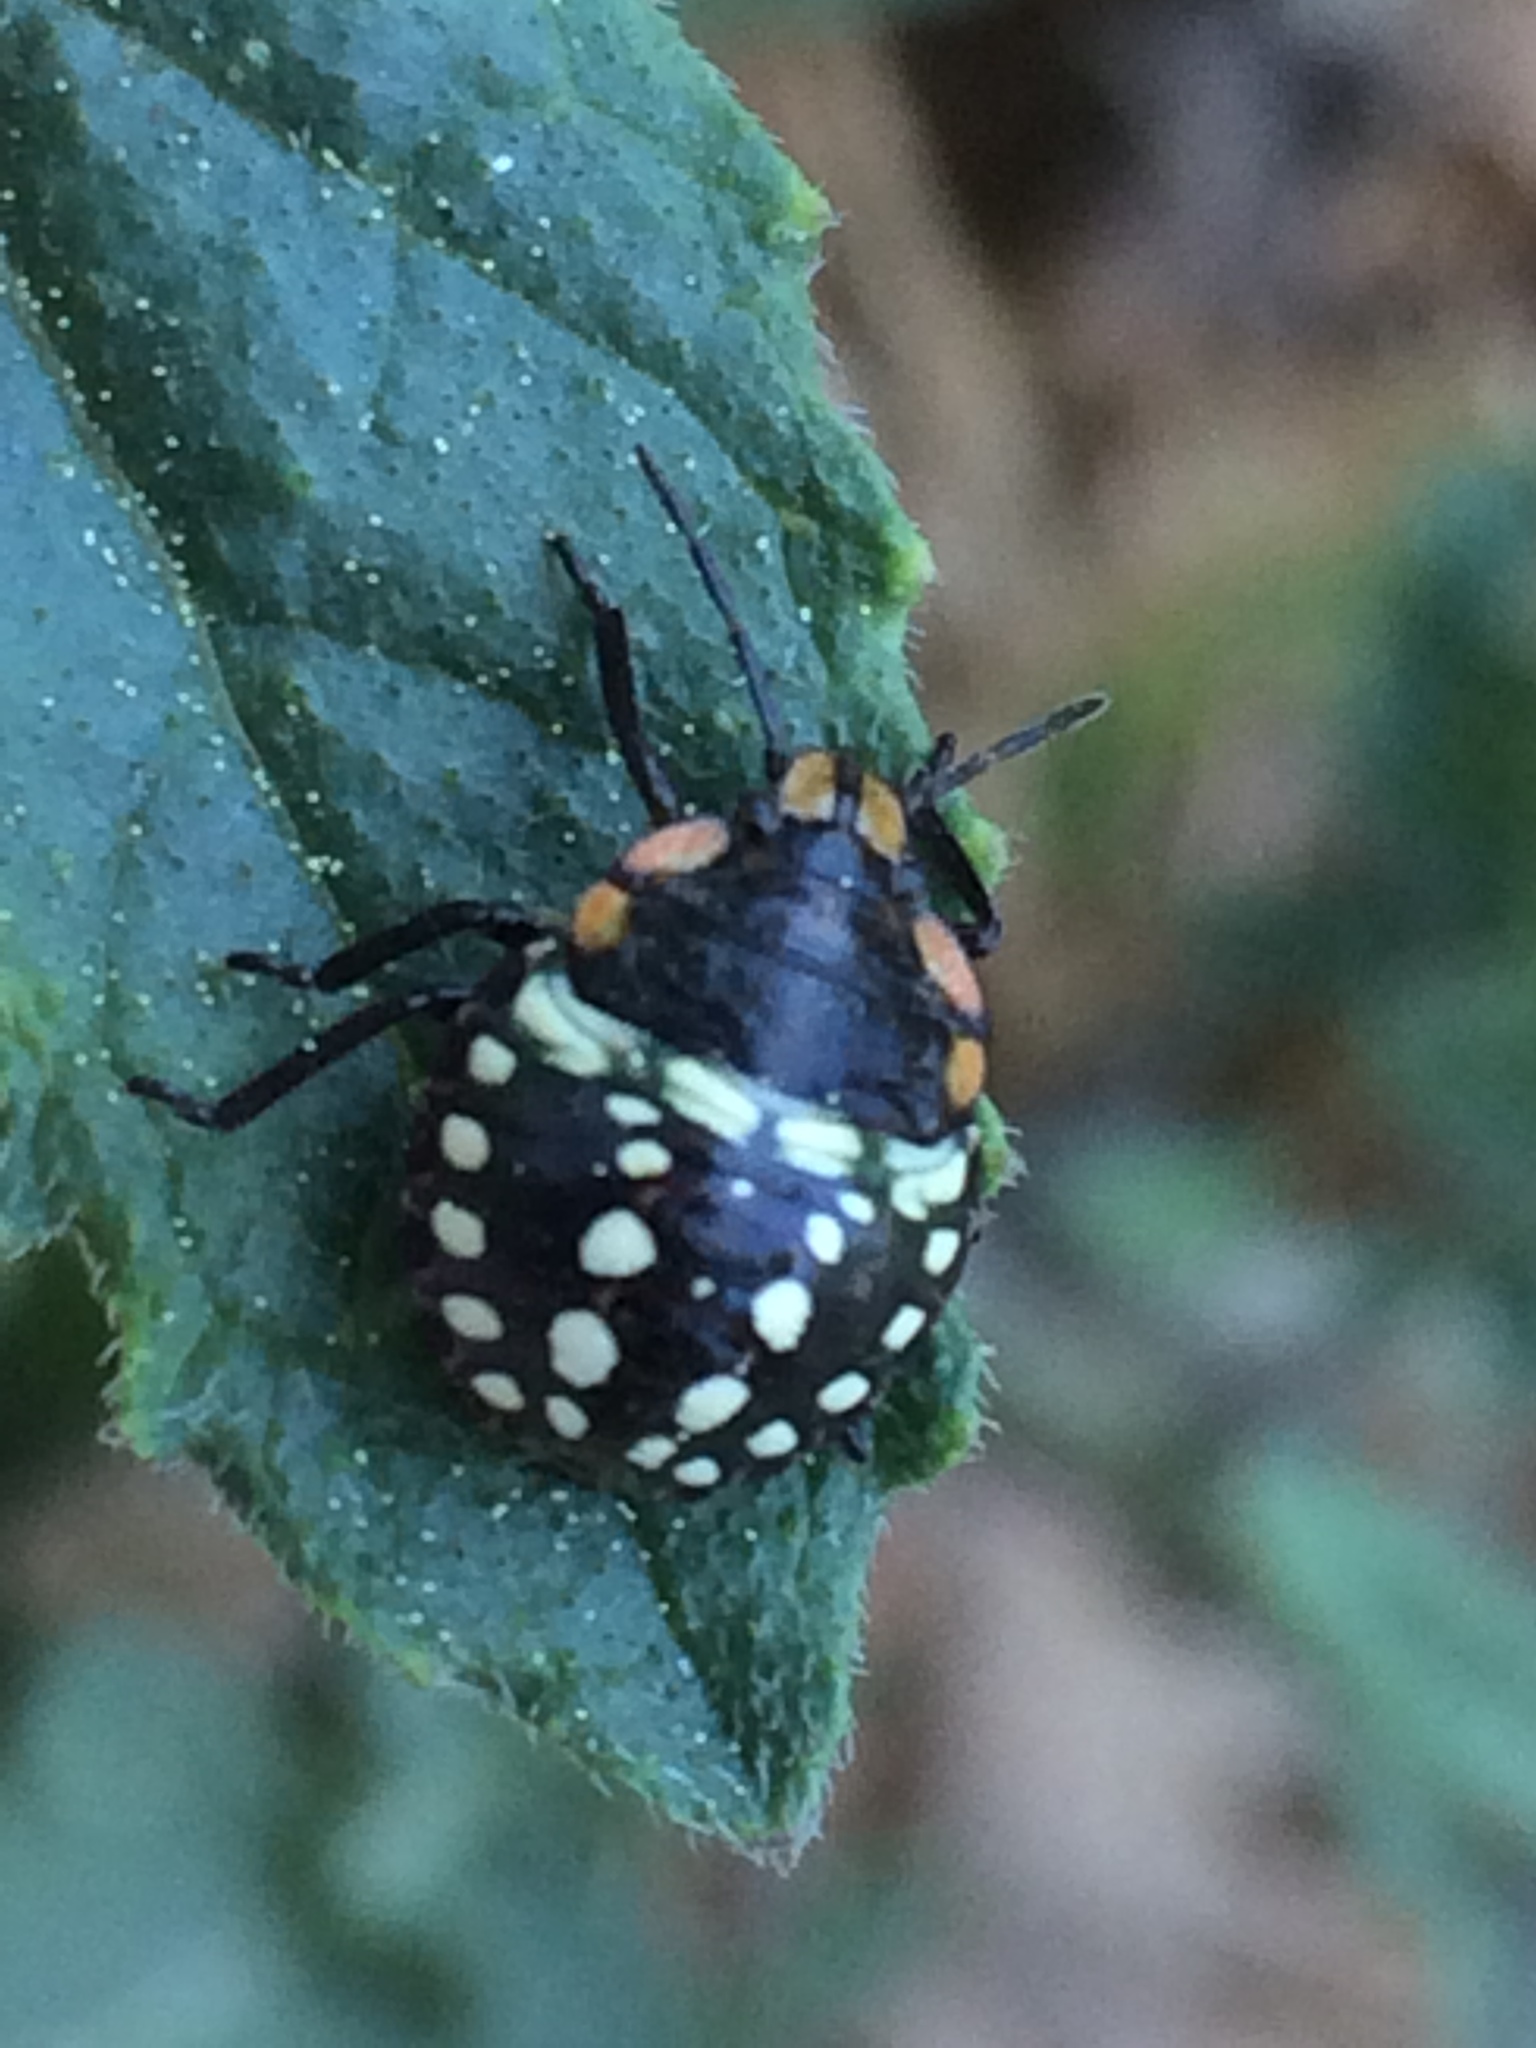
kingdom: Animalia
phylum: Arthropoda
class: Insecta
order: Hemiptera
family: Pentatomidae
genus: Nezara
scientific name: Nezara viridula
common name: Southern green stink bug
